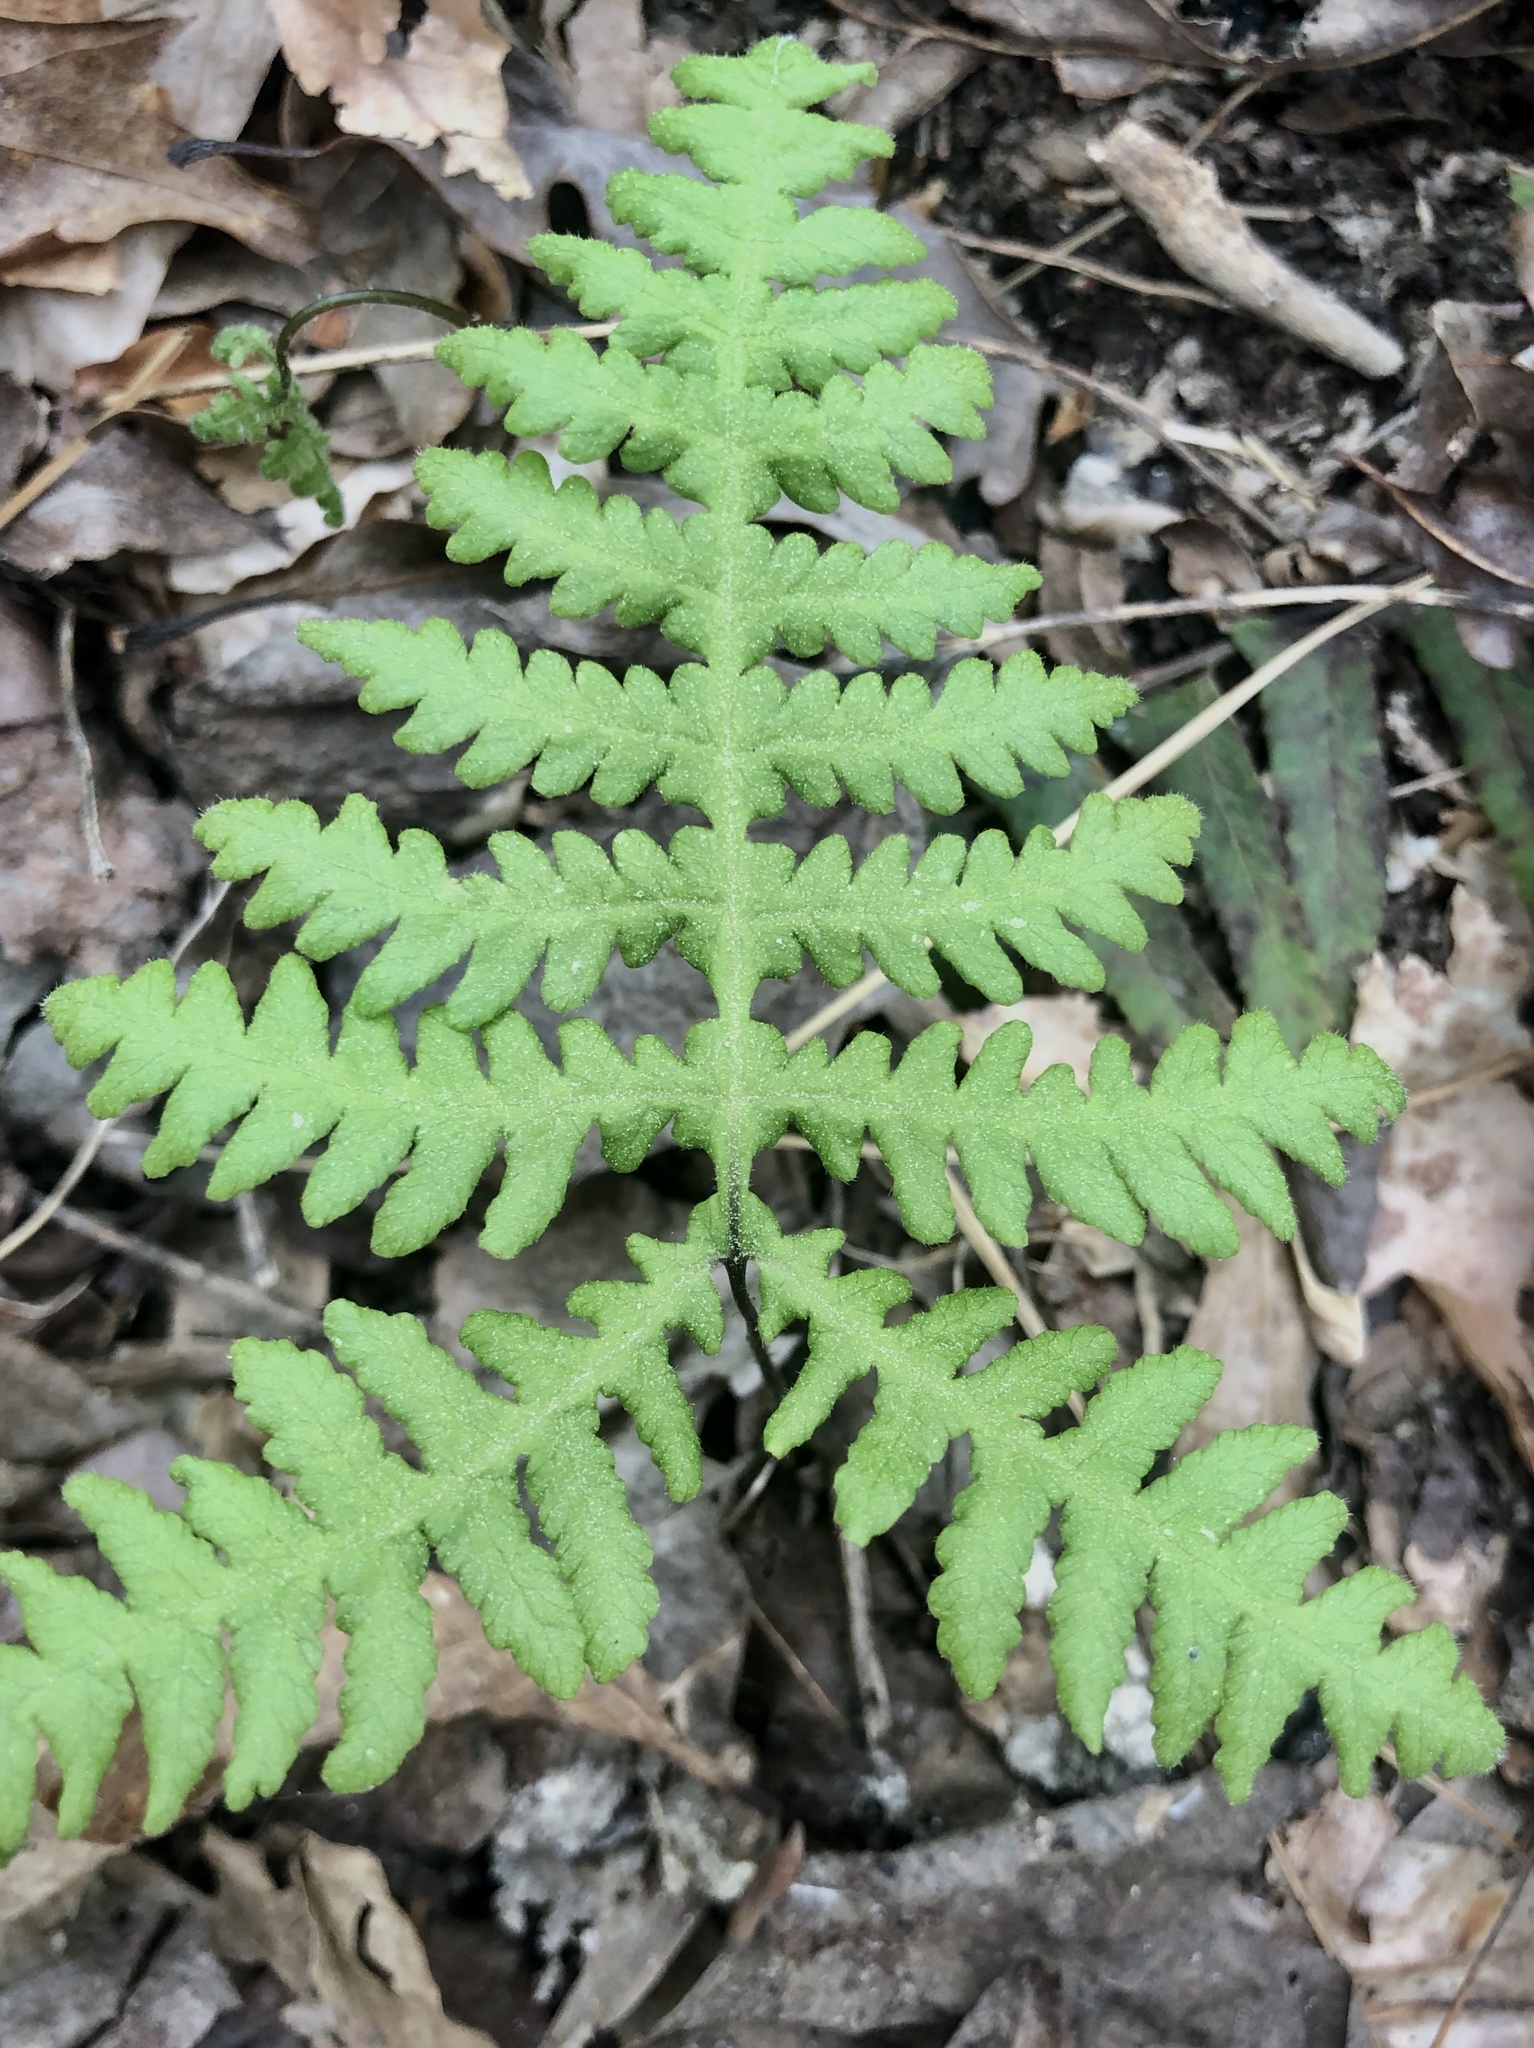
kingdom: Plantae
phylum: Tracheophyta
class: Polypodiopsida
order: Polypodiales
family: Thelypteridaceae
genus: Phegopteris
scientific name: Phegopteris hexagonoptera
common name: Broad beech fern
